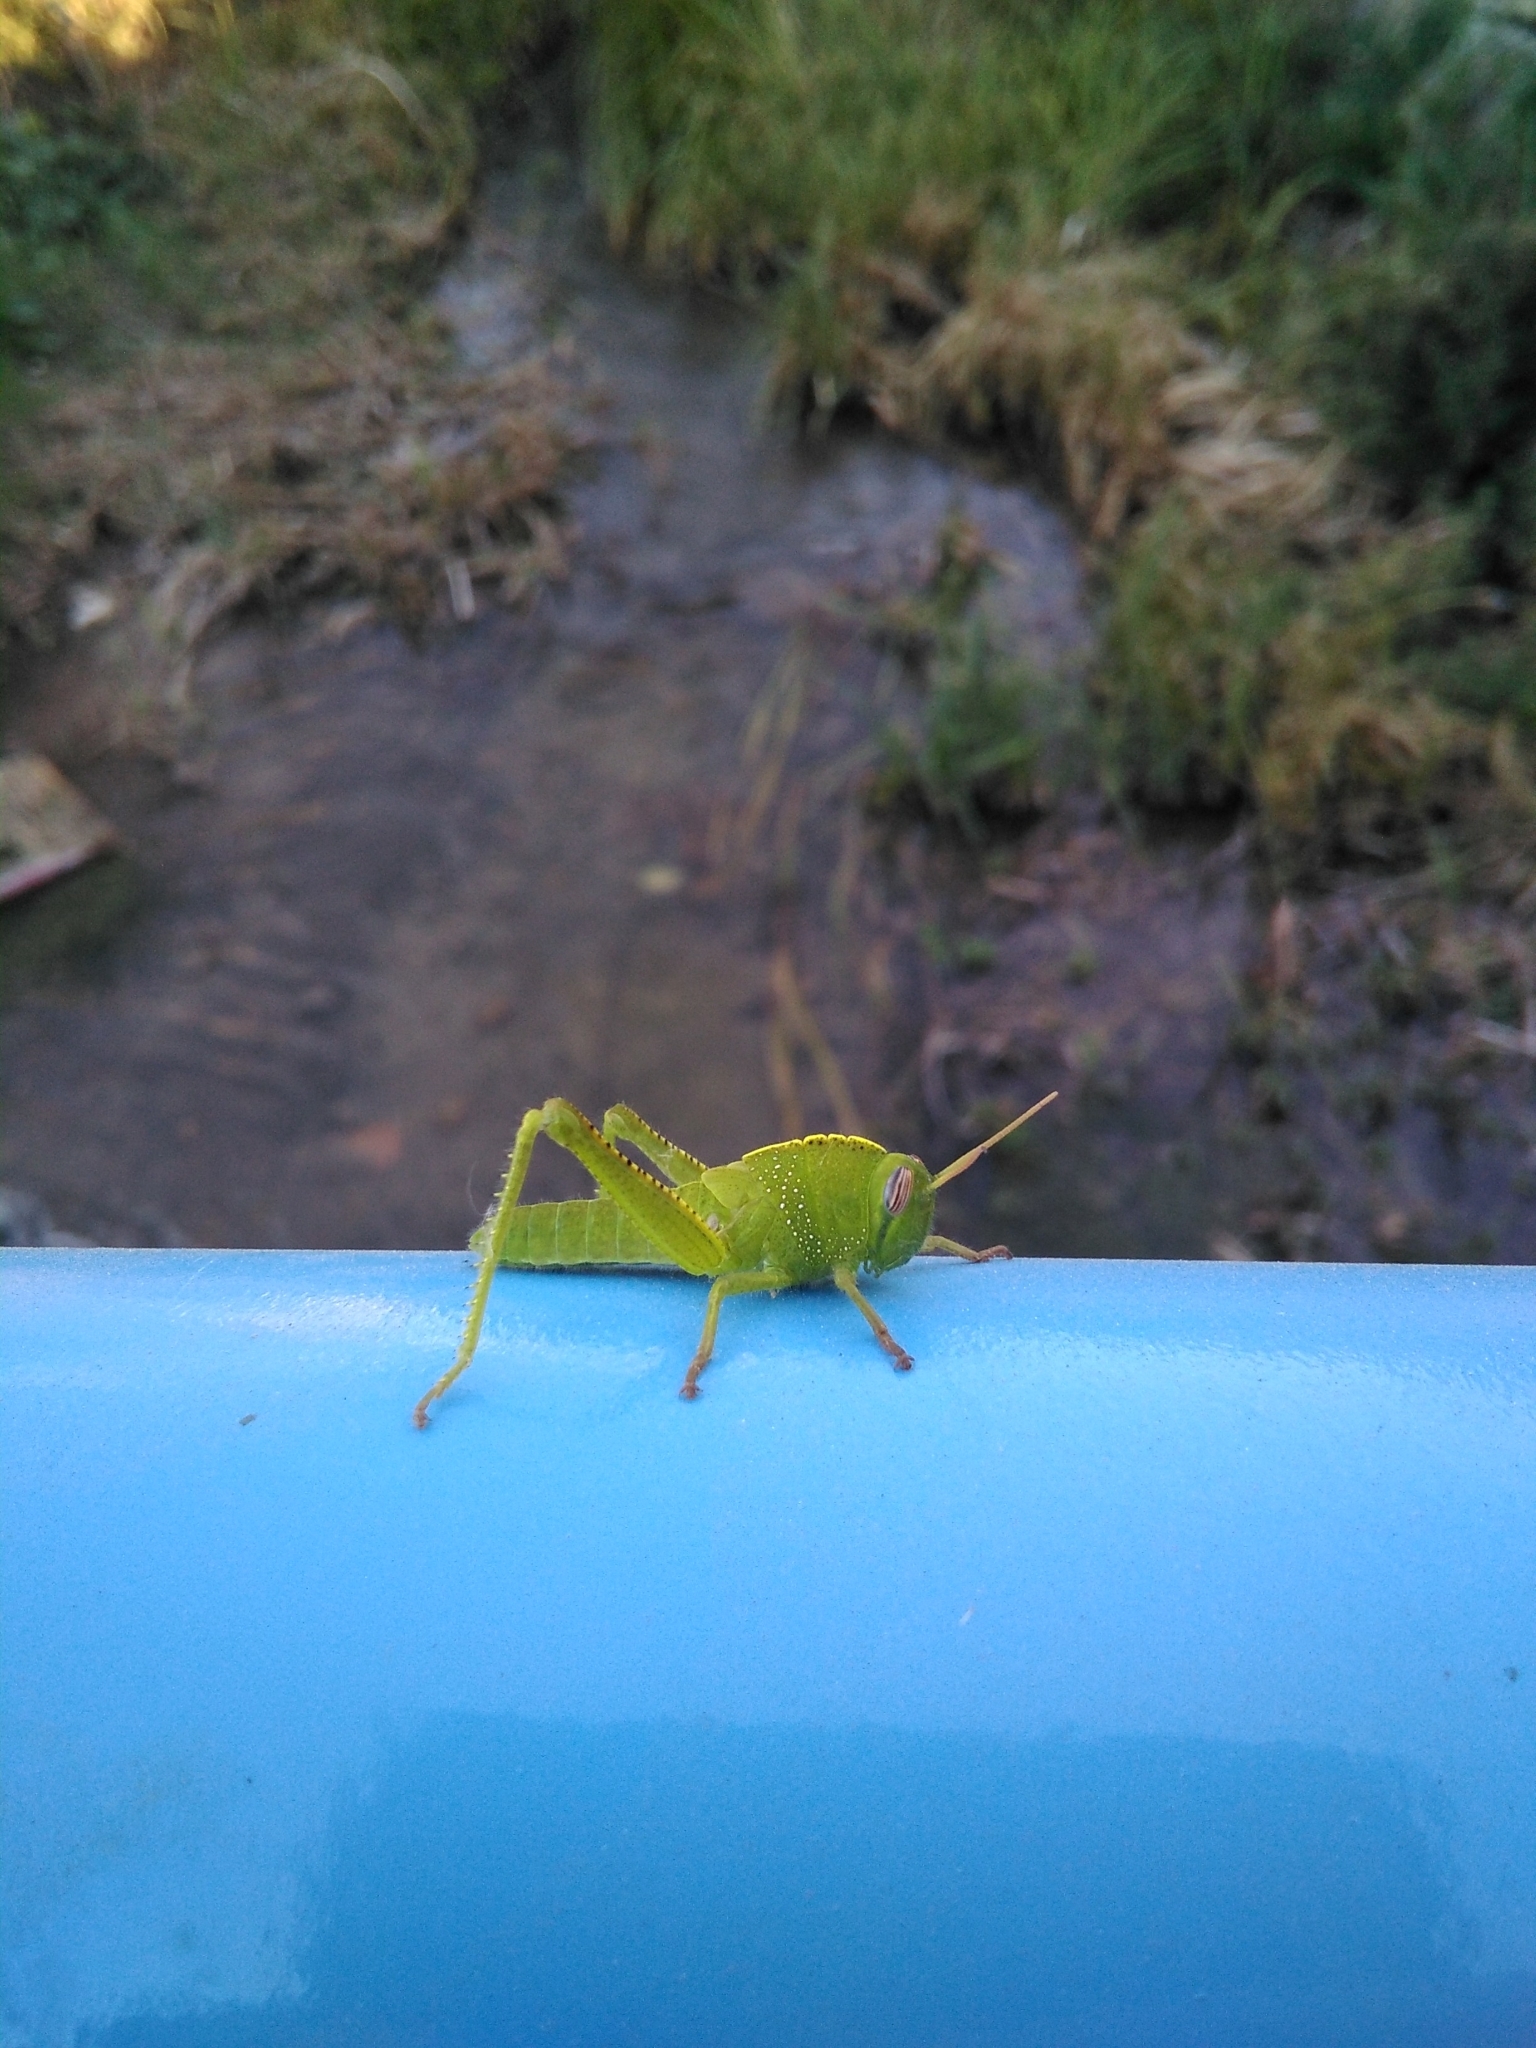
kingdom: Animalia
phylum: Arthropoda
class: Insecta
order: Orthoptera
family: Acrididae
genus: Anacridium
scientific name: Anacridium aegyptium
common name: Egyptian grasshopper
